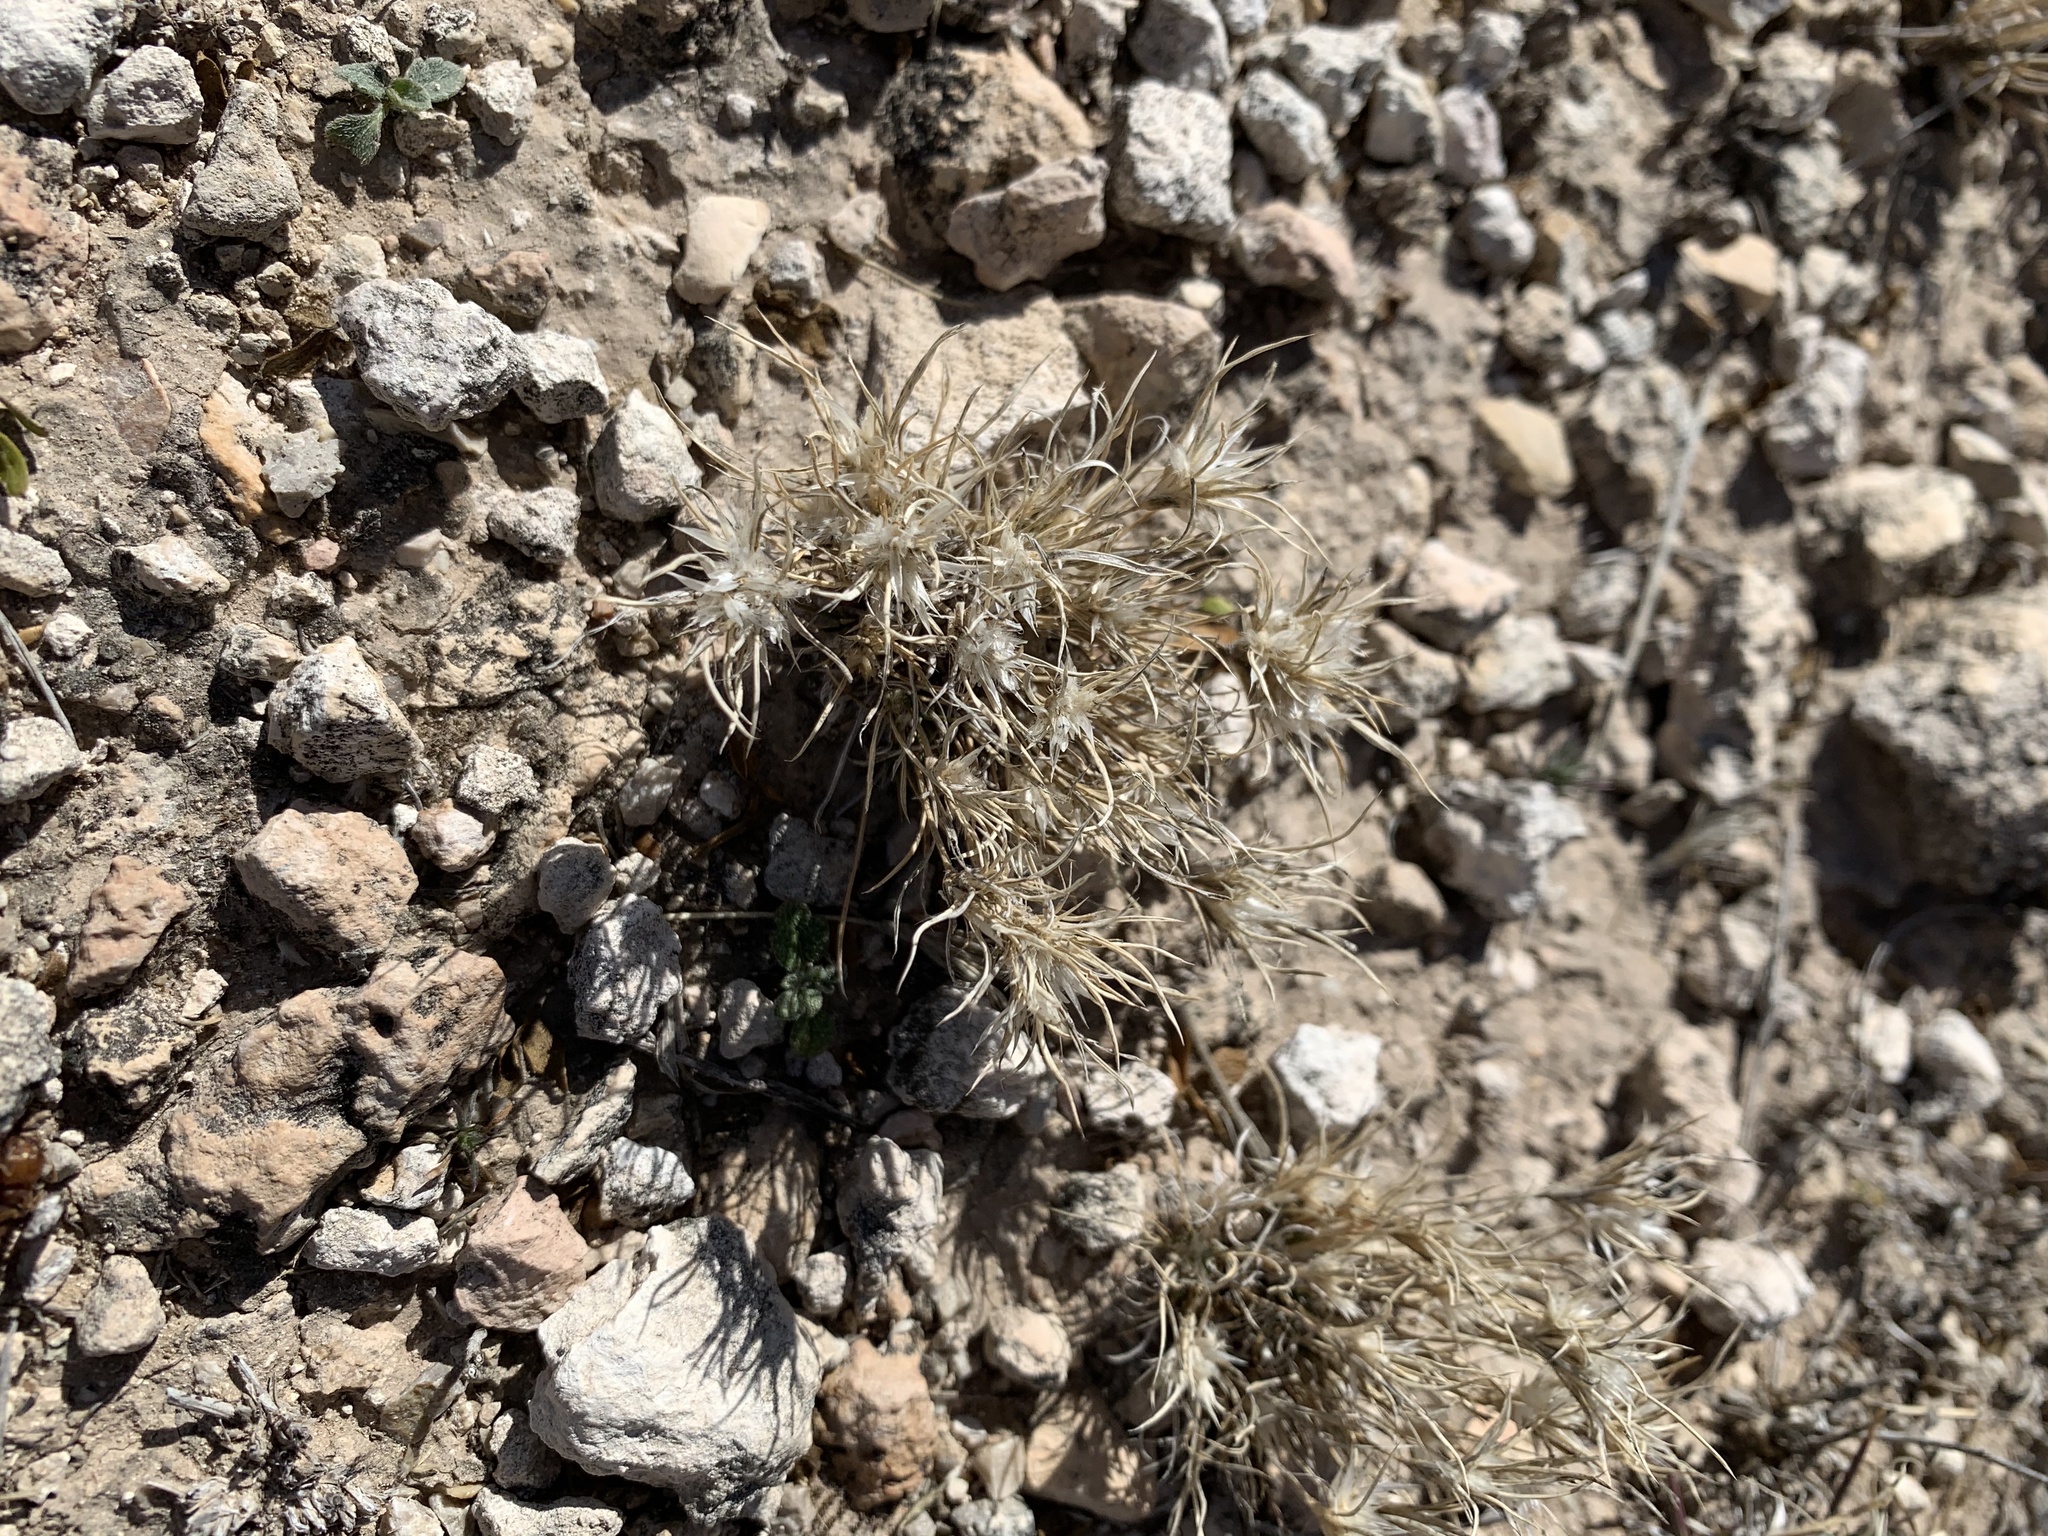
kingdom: Plantae
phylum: Tracheophyta
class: Liliopsida
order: Poales
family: Poaceae
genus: Dasyochloa
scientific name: Dasyochloa pulchella
